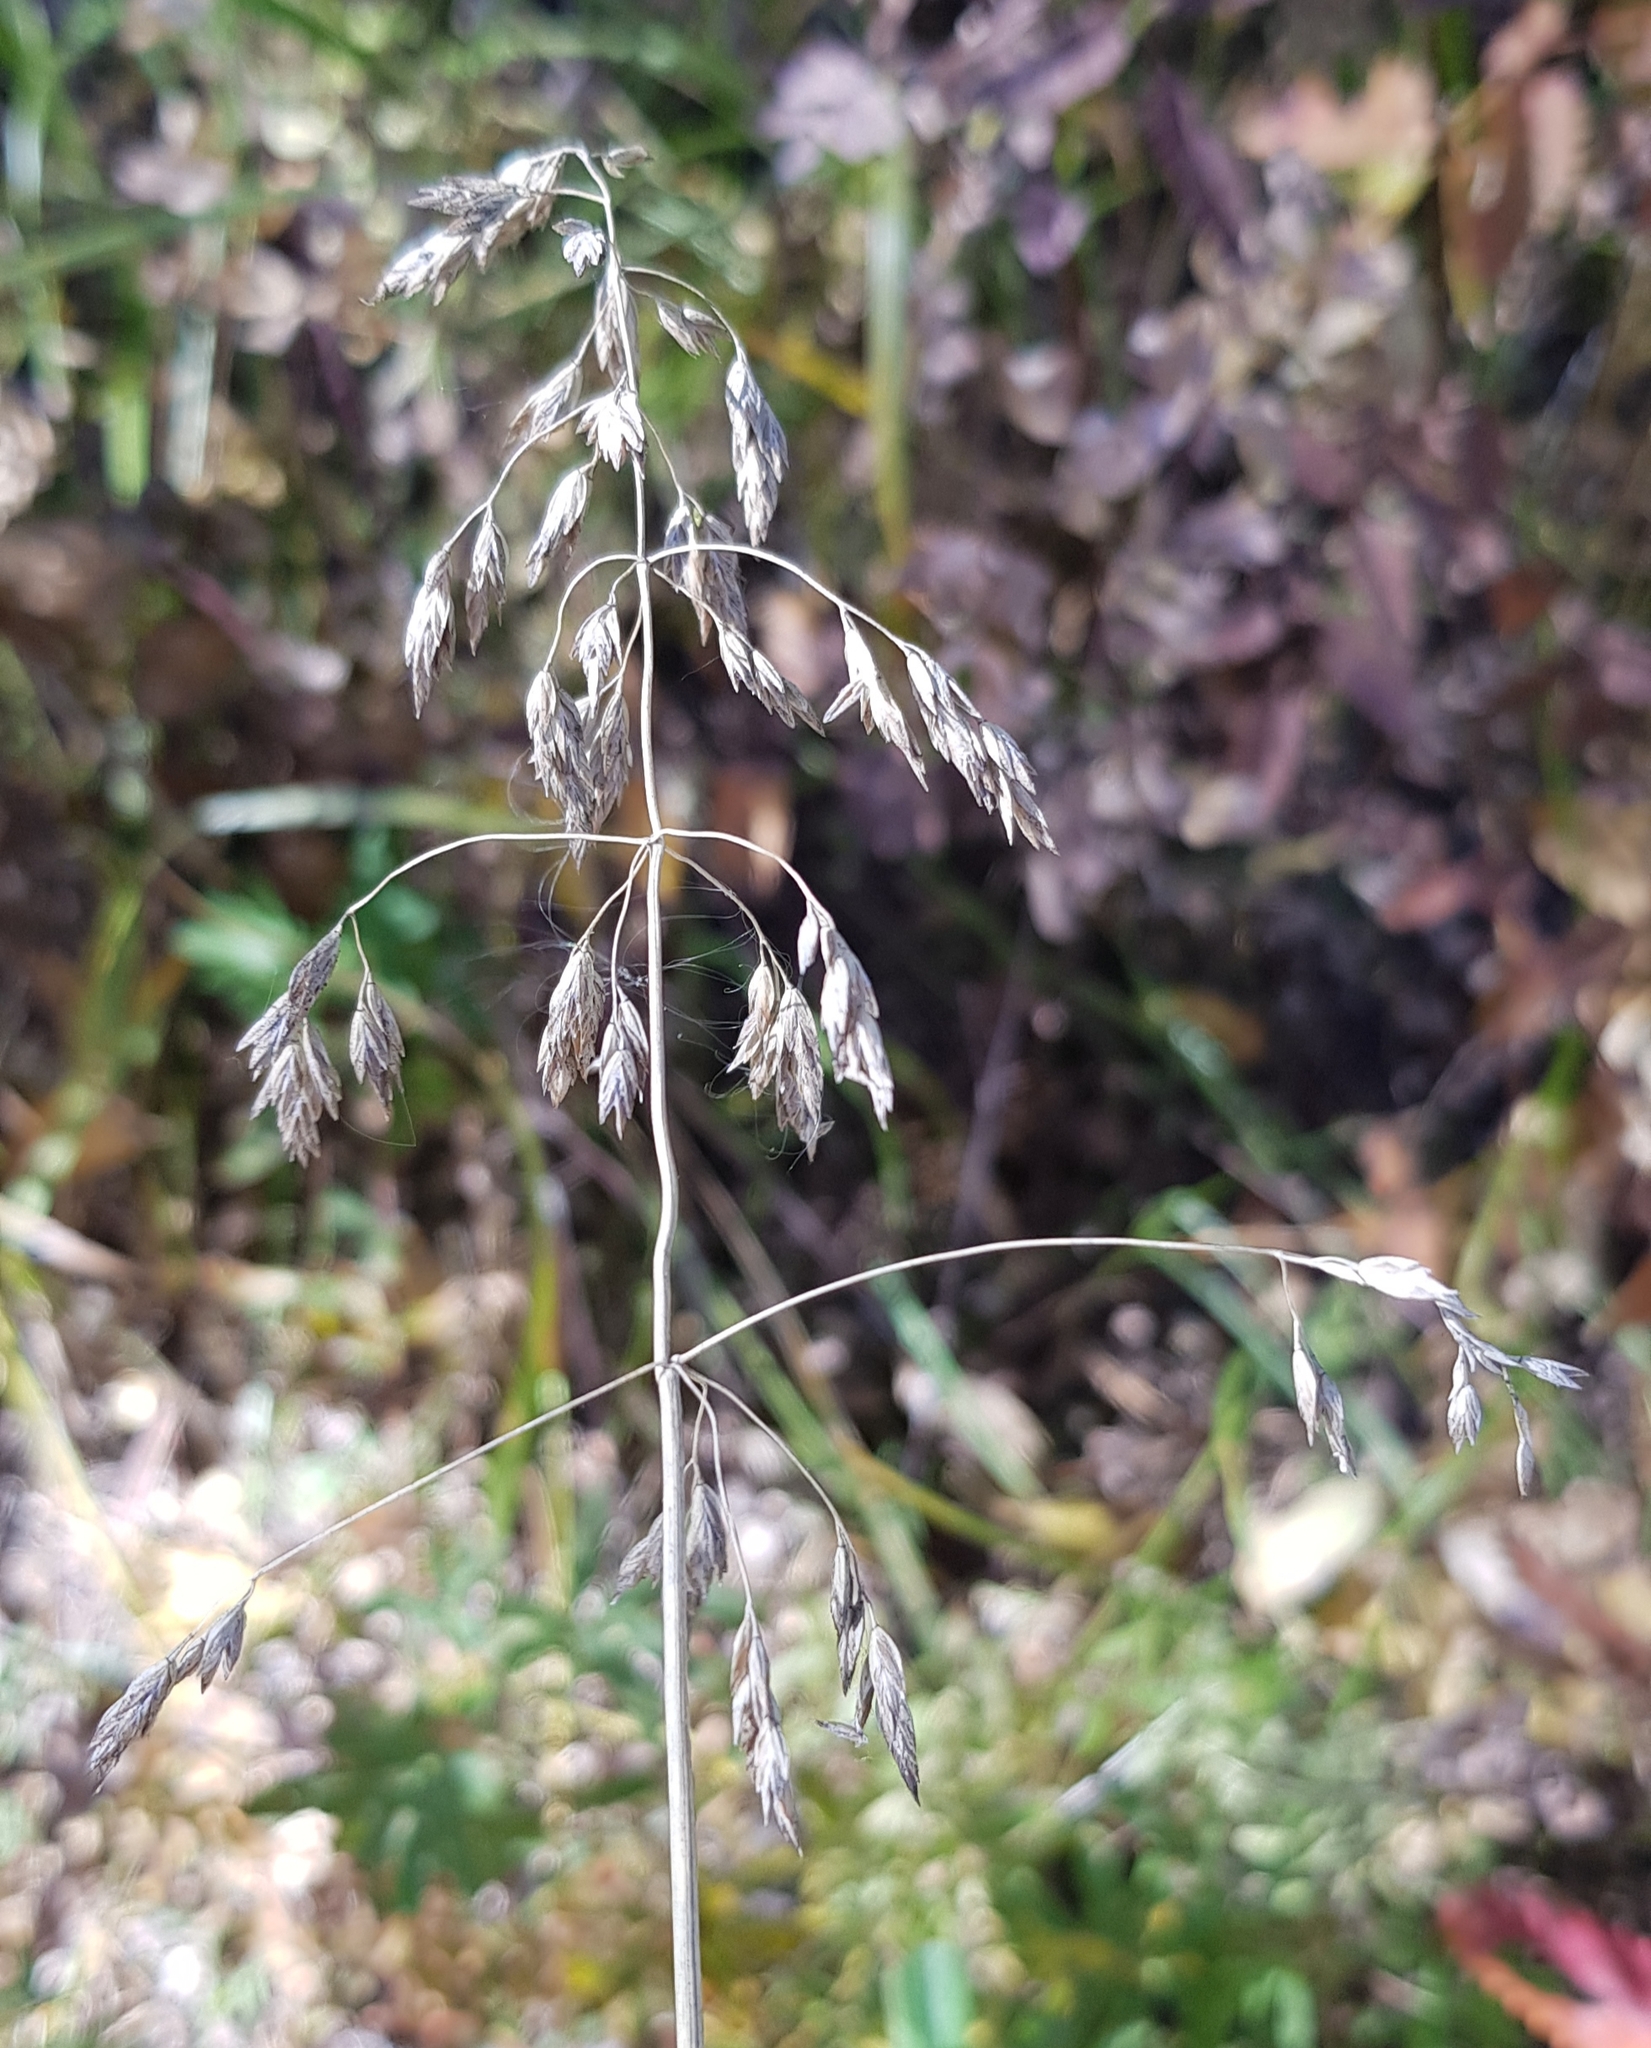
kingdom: Plantae
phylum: Tracheophyta
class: Liliopsida
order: Poales
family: Poaceae
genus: Poa
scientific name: Poa pratensis
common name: Kentucky bluegrass
